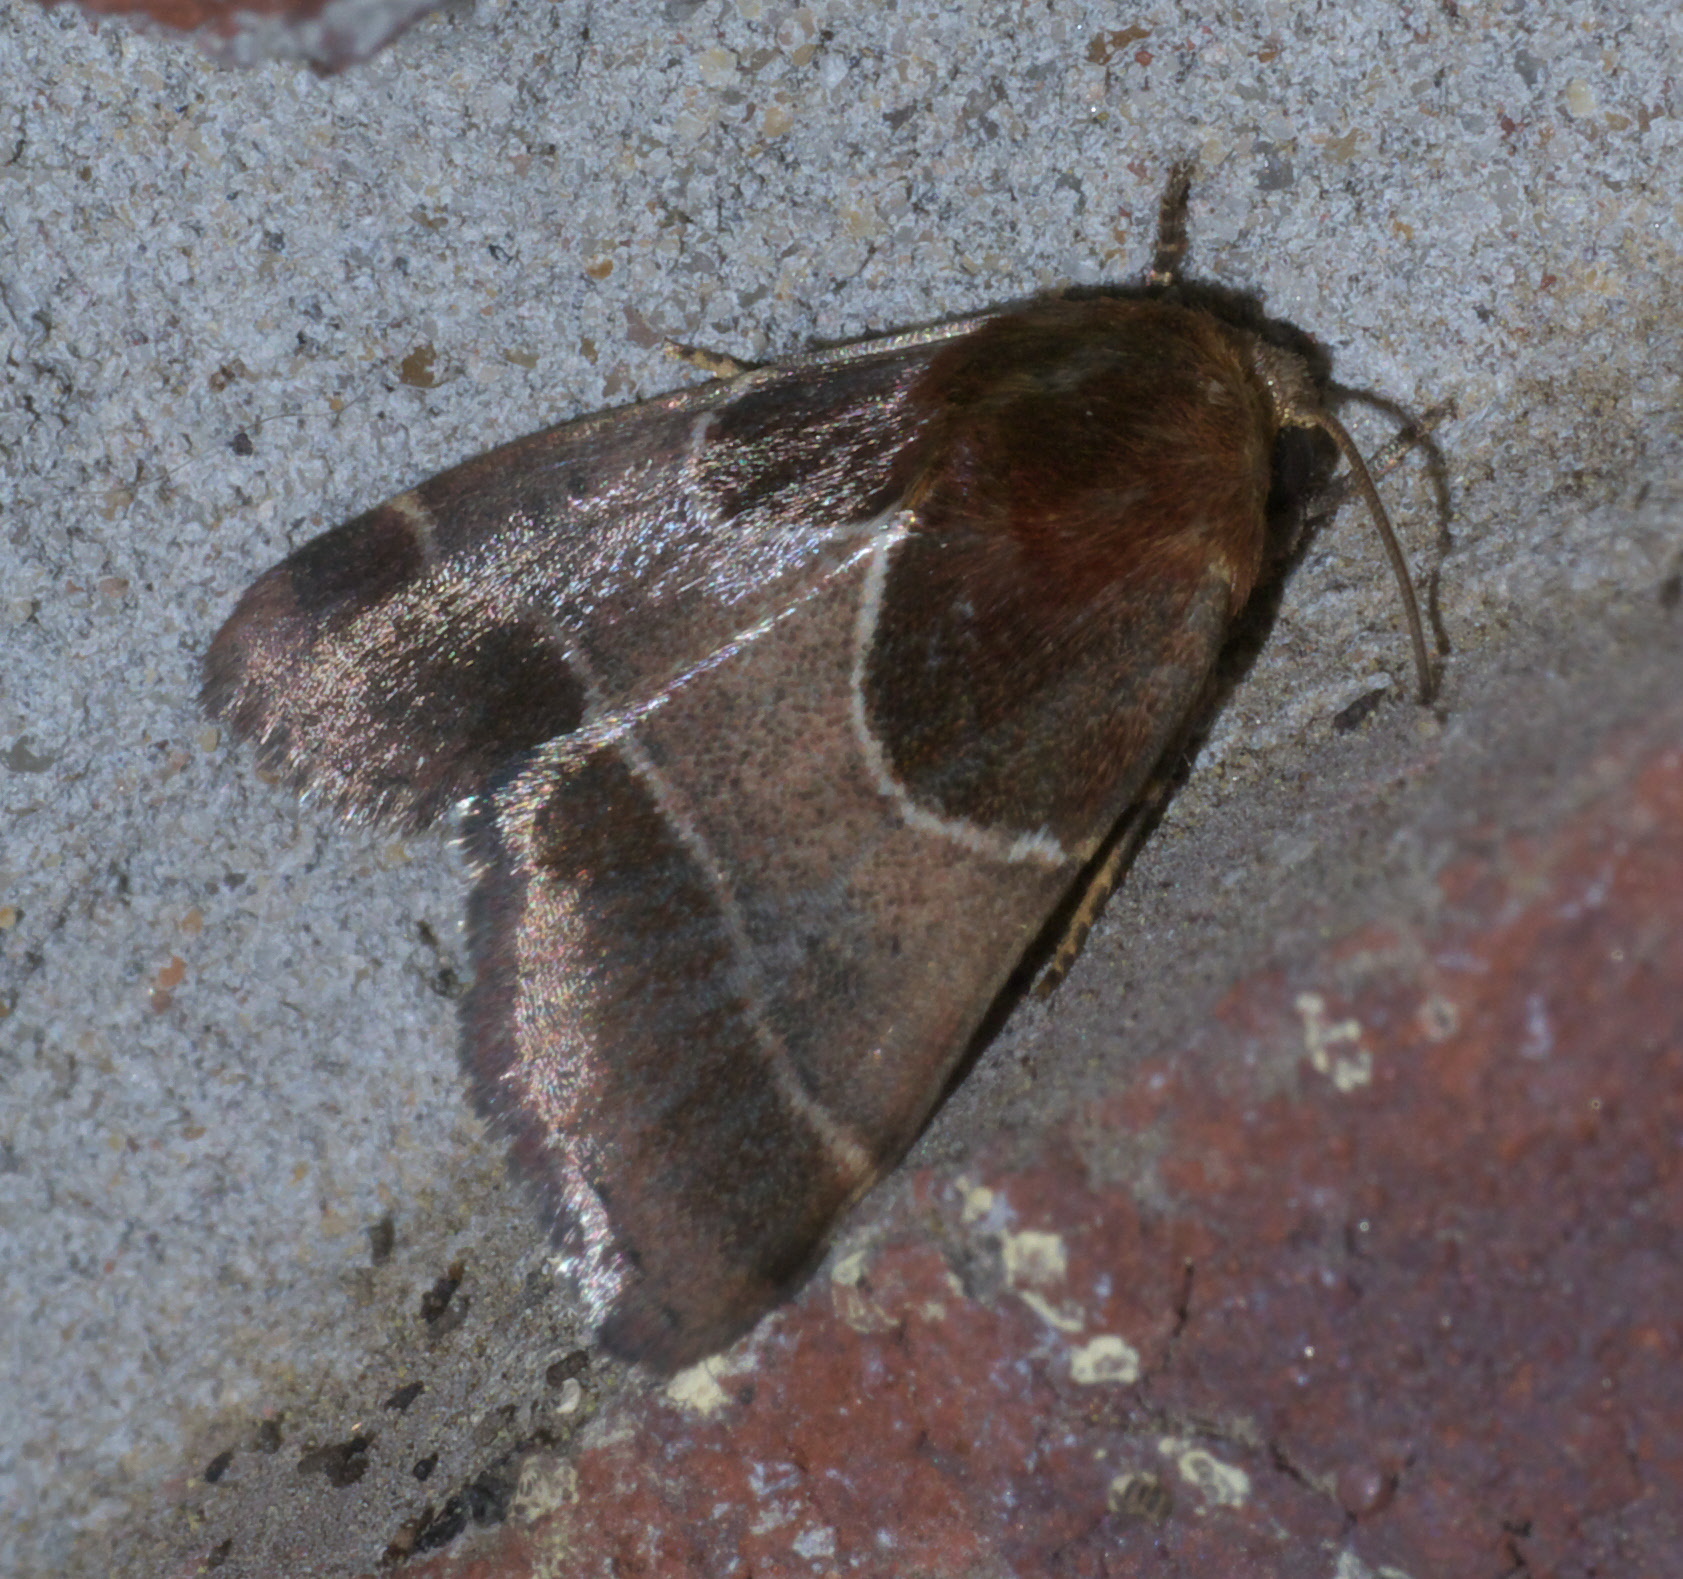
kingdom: Animalia
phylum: Arthropoda
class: Insecta
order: Lepidoptera
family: Noctuidae
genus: Schinia
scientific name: Schinia arcigera
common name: Arcigera flower moth
